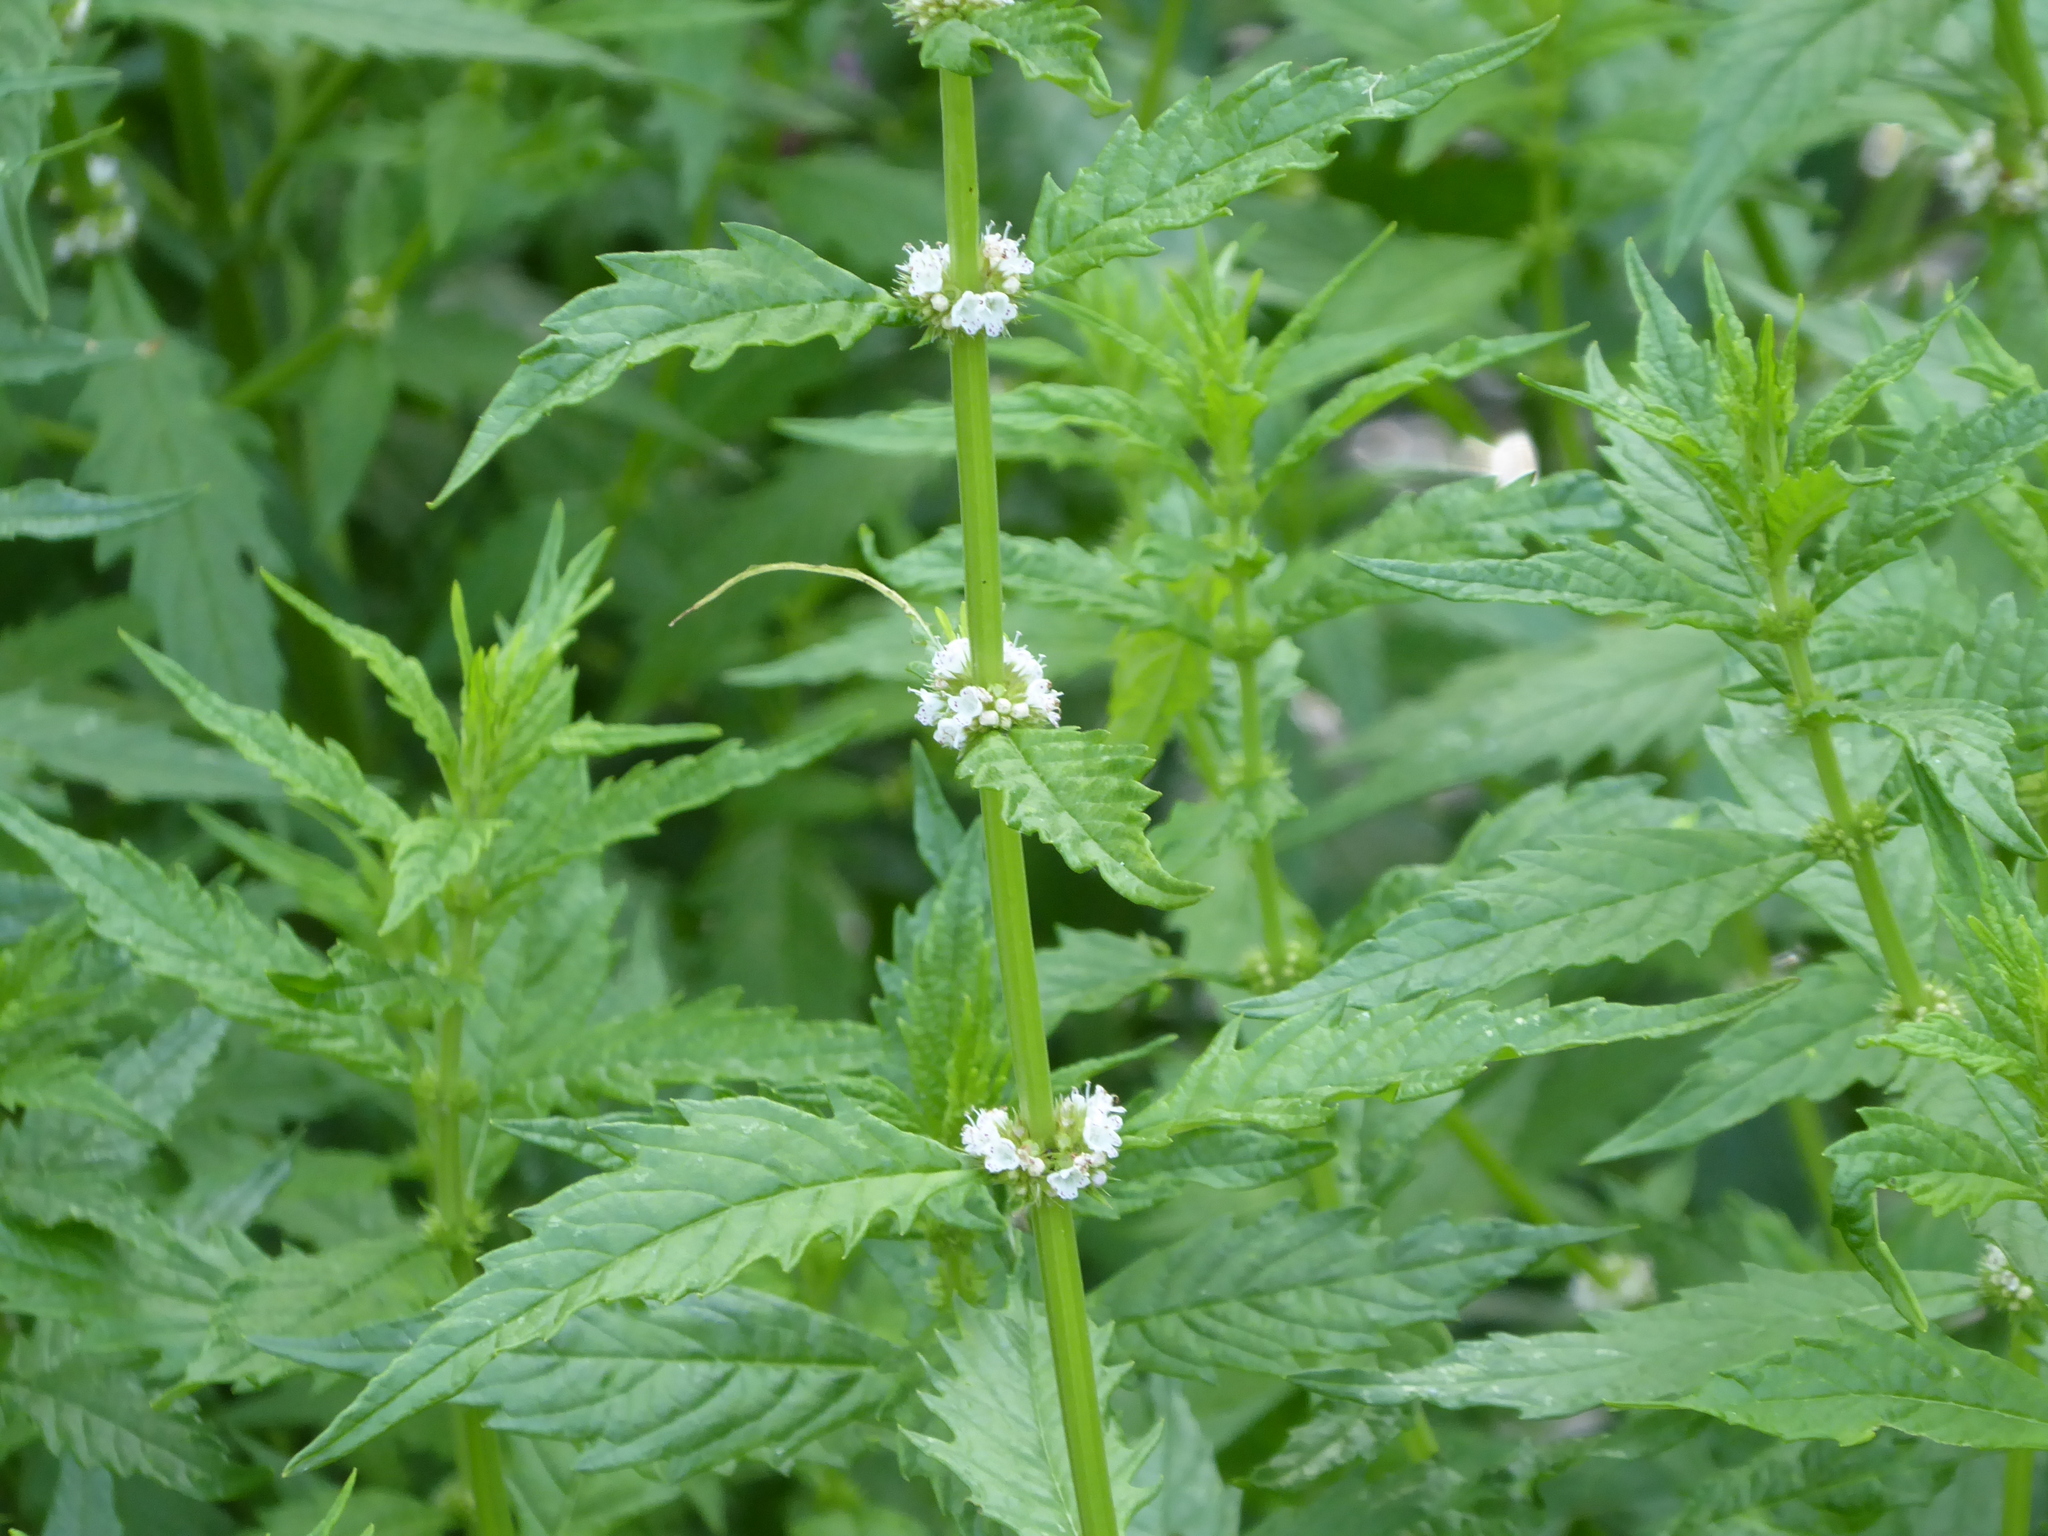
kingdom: Plantae
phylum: Tracheophyta
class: Magnoliopsida
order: Lamiales
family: Lamiaceae
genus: Lycopus
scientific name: Lycopus europaeus
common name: European bugleweed
